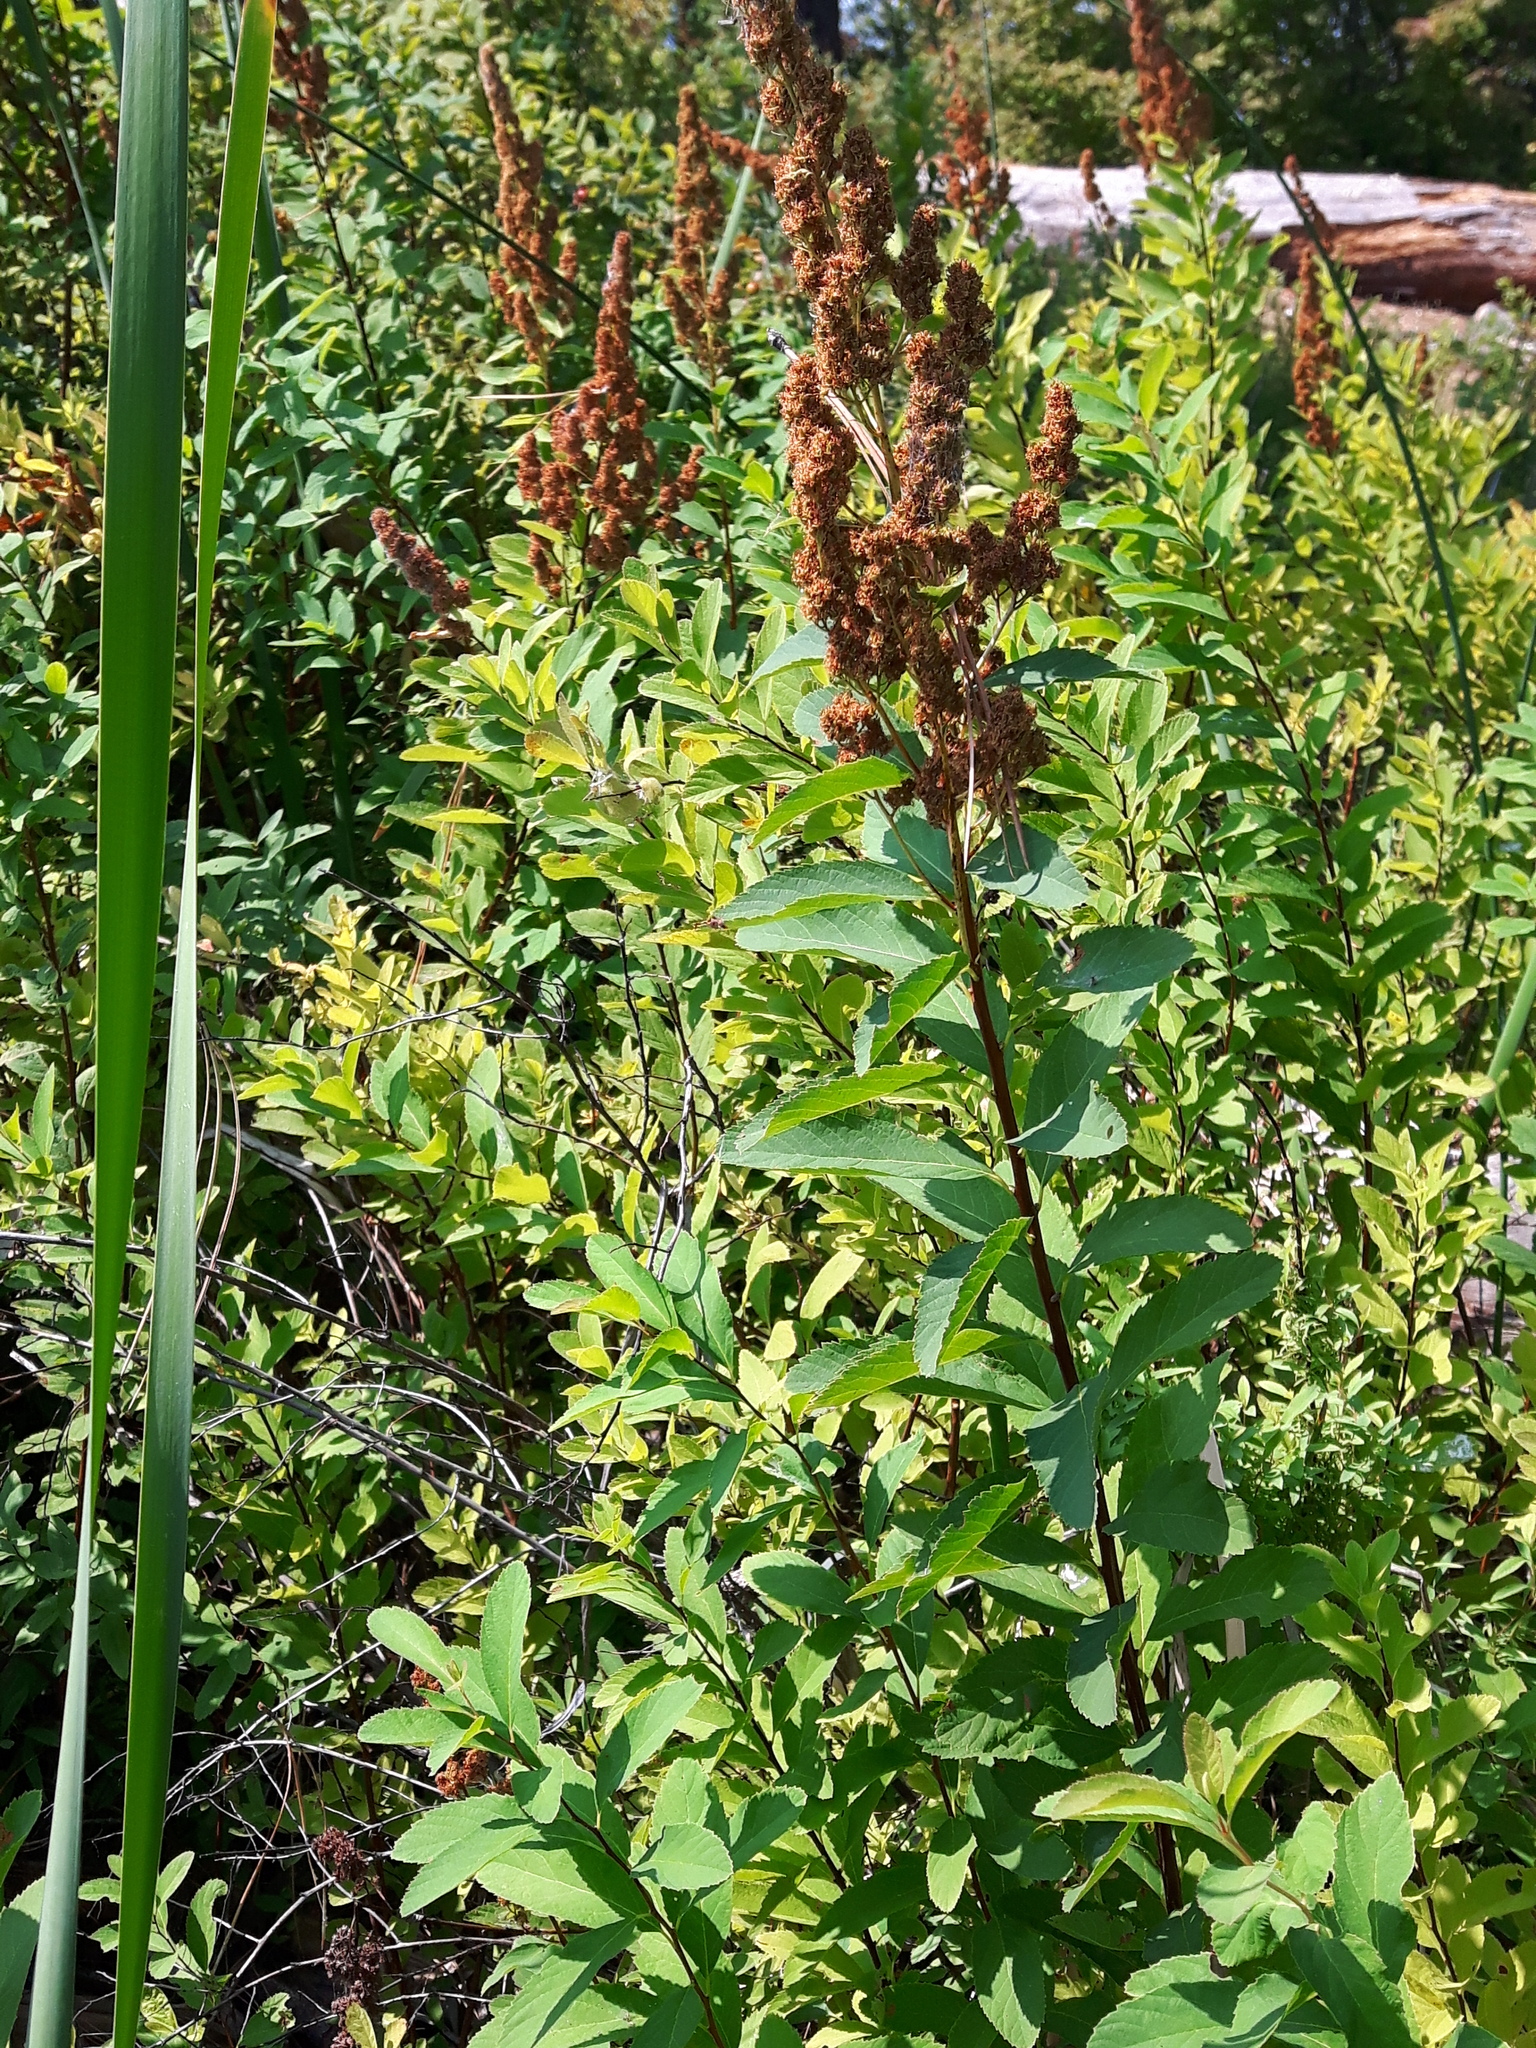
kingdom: Plantae
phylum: Tracheophyta
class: Magnoliopsida
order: Rosales
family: Rosaceae
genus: Spiraea
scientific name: Spiraea douglasii
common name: Steeplebush
